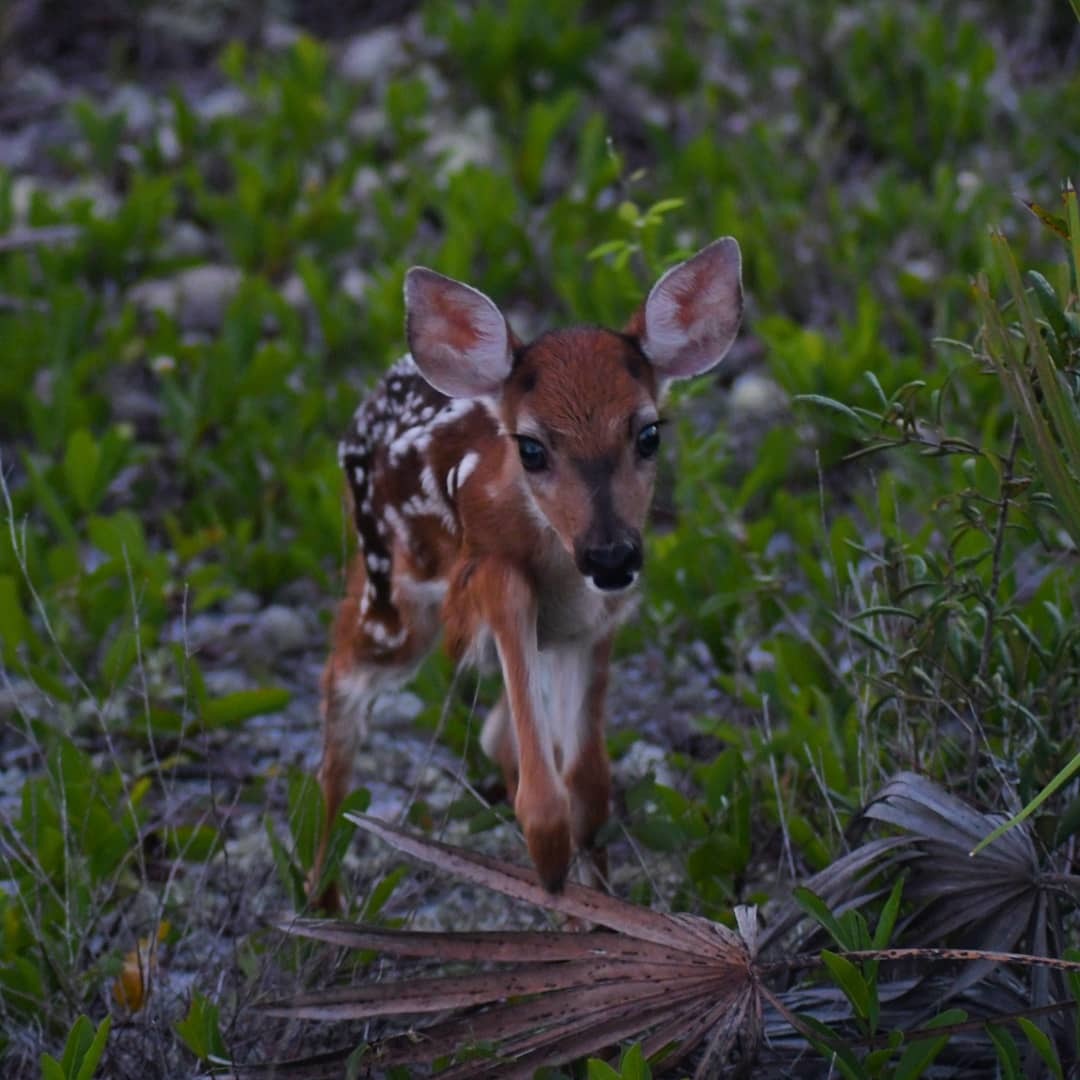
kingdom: Animalia
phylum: Chordata
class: Mammalia
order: Artiodactyla
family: Cervidae
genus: Odocoileus
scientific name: Odocoileus virginianus
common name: White-tailed deer
